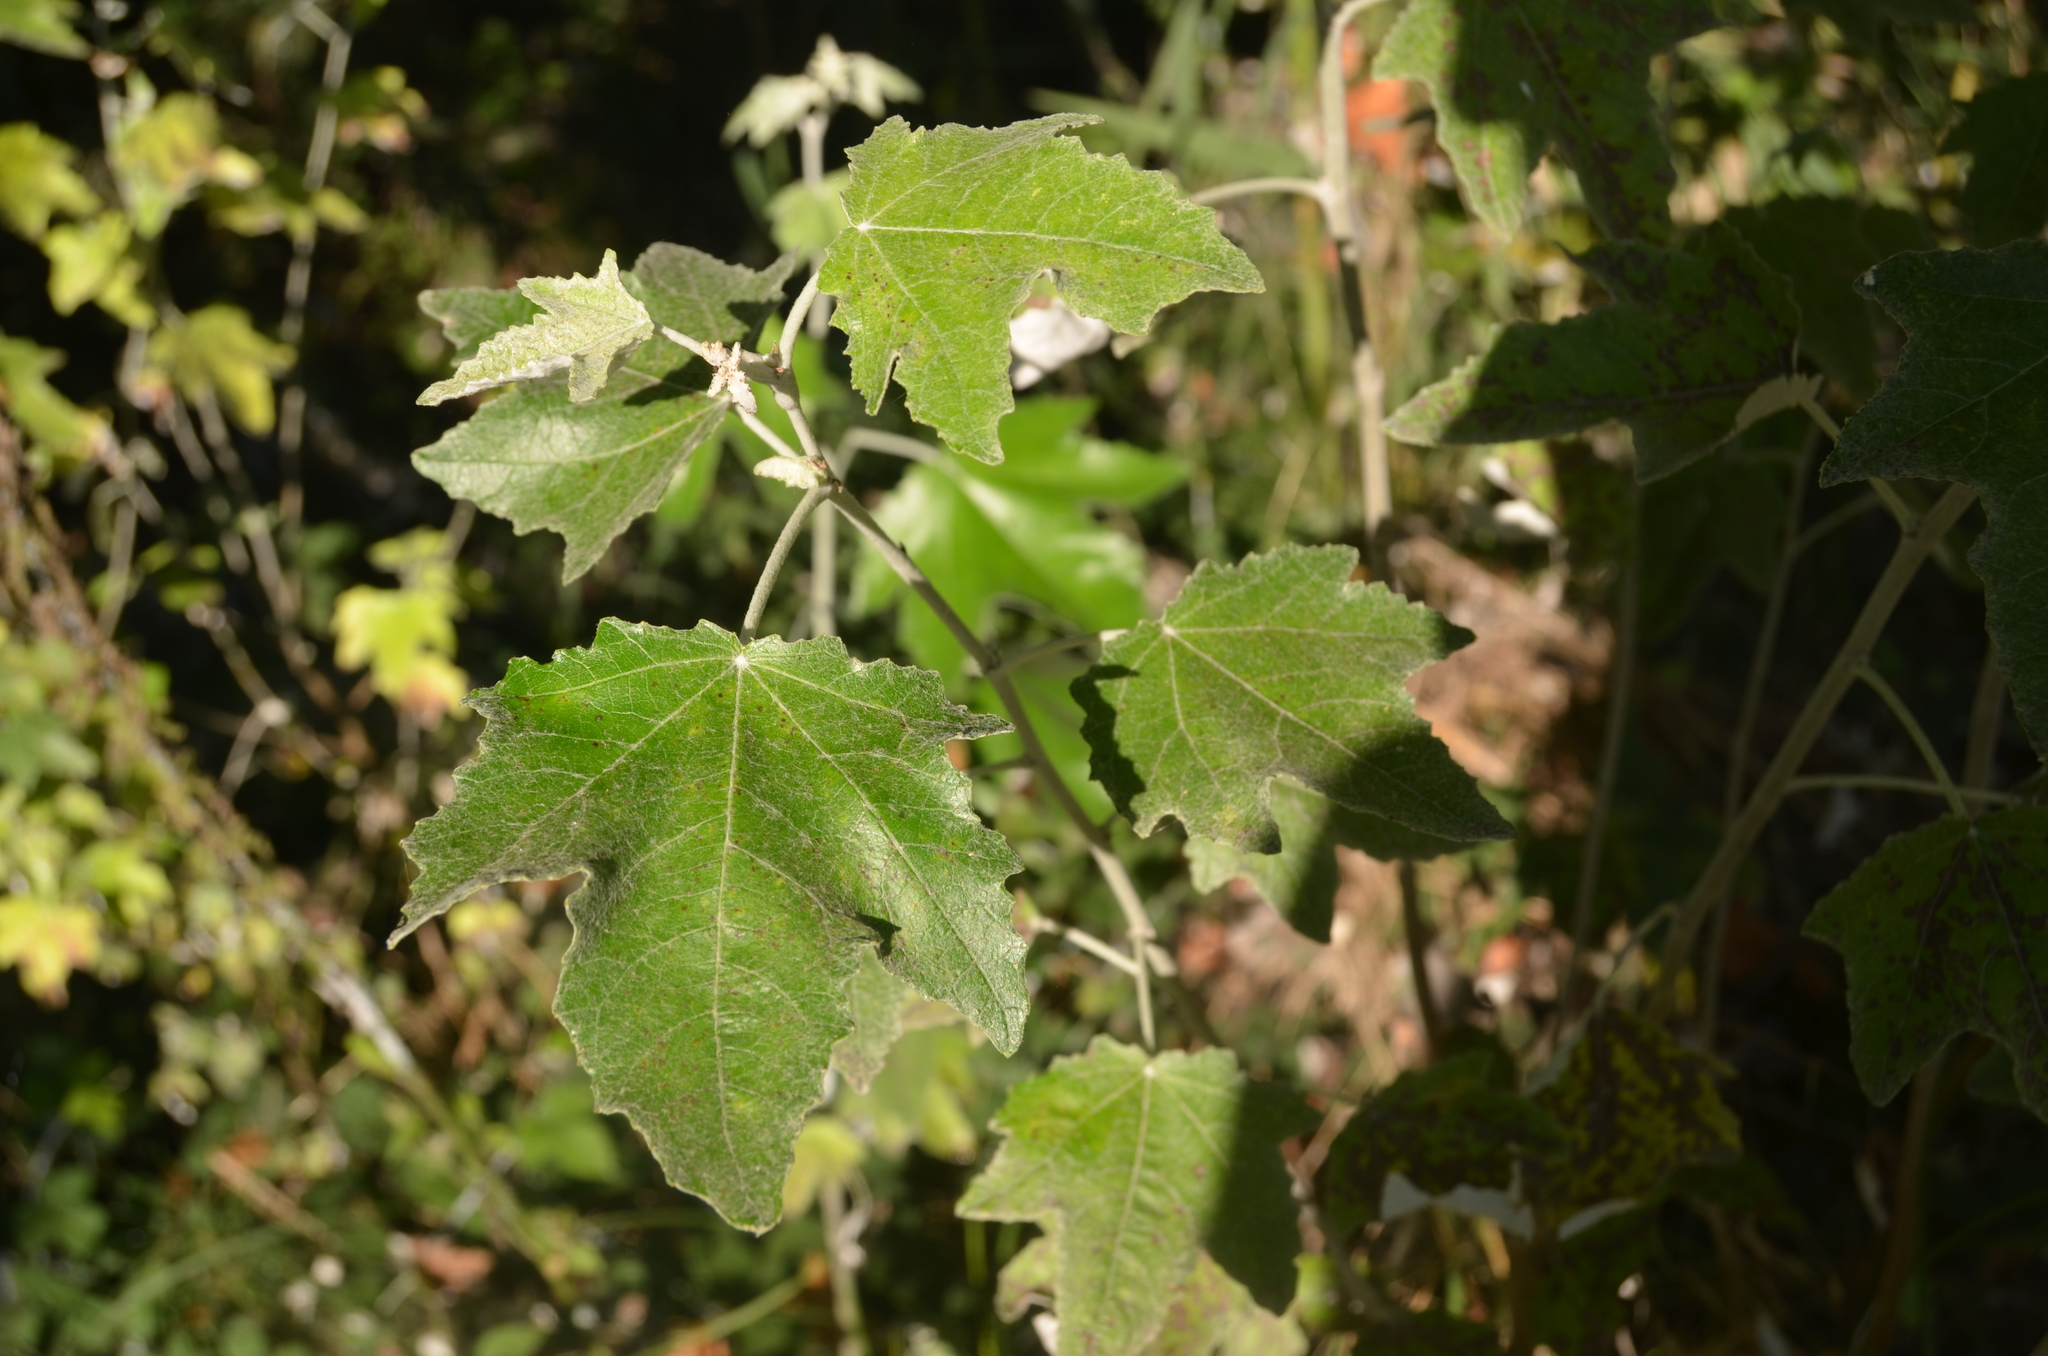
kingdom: Plantae
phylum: Tracheophyta
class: Magnoliopsida
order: Malpighiales
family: Salicaceae
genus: Populus
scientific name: Populus alba
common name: White poplar
